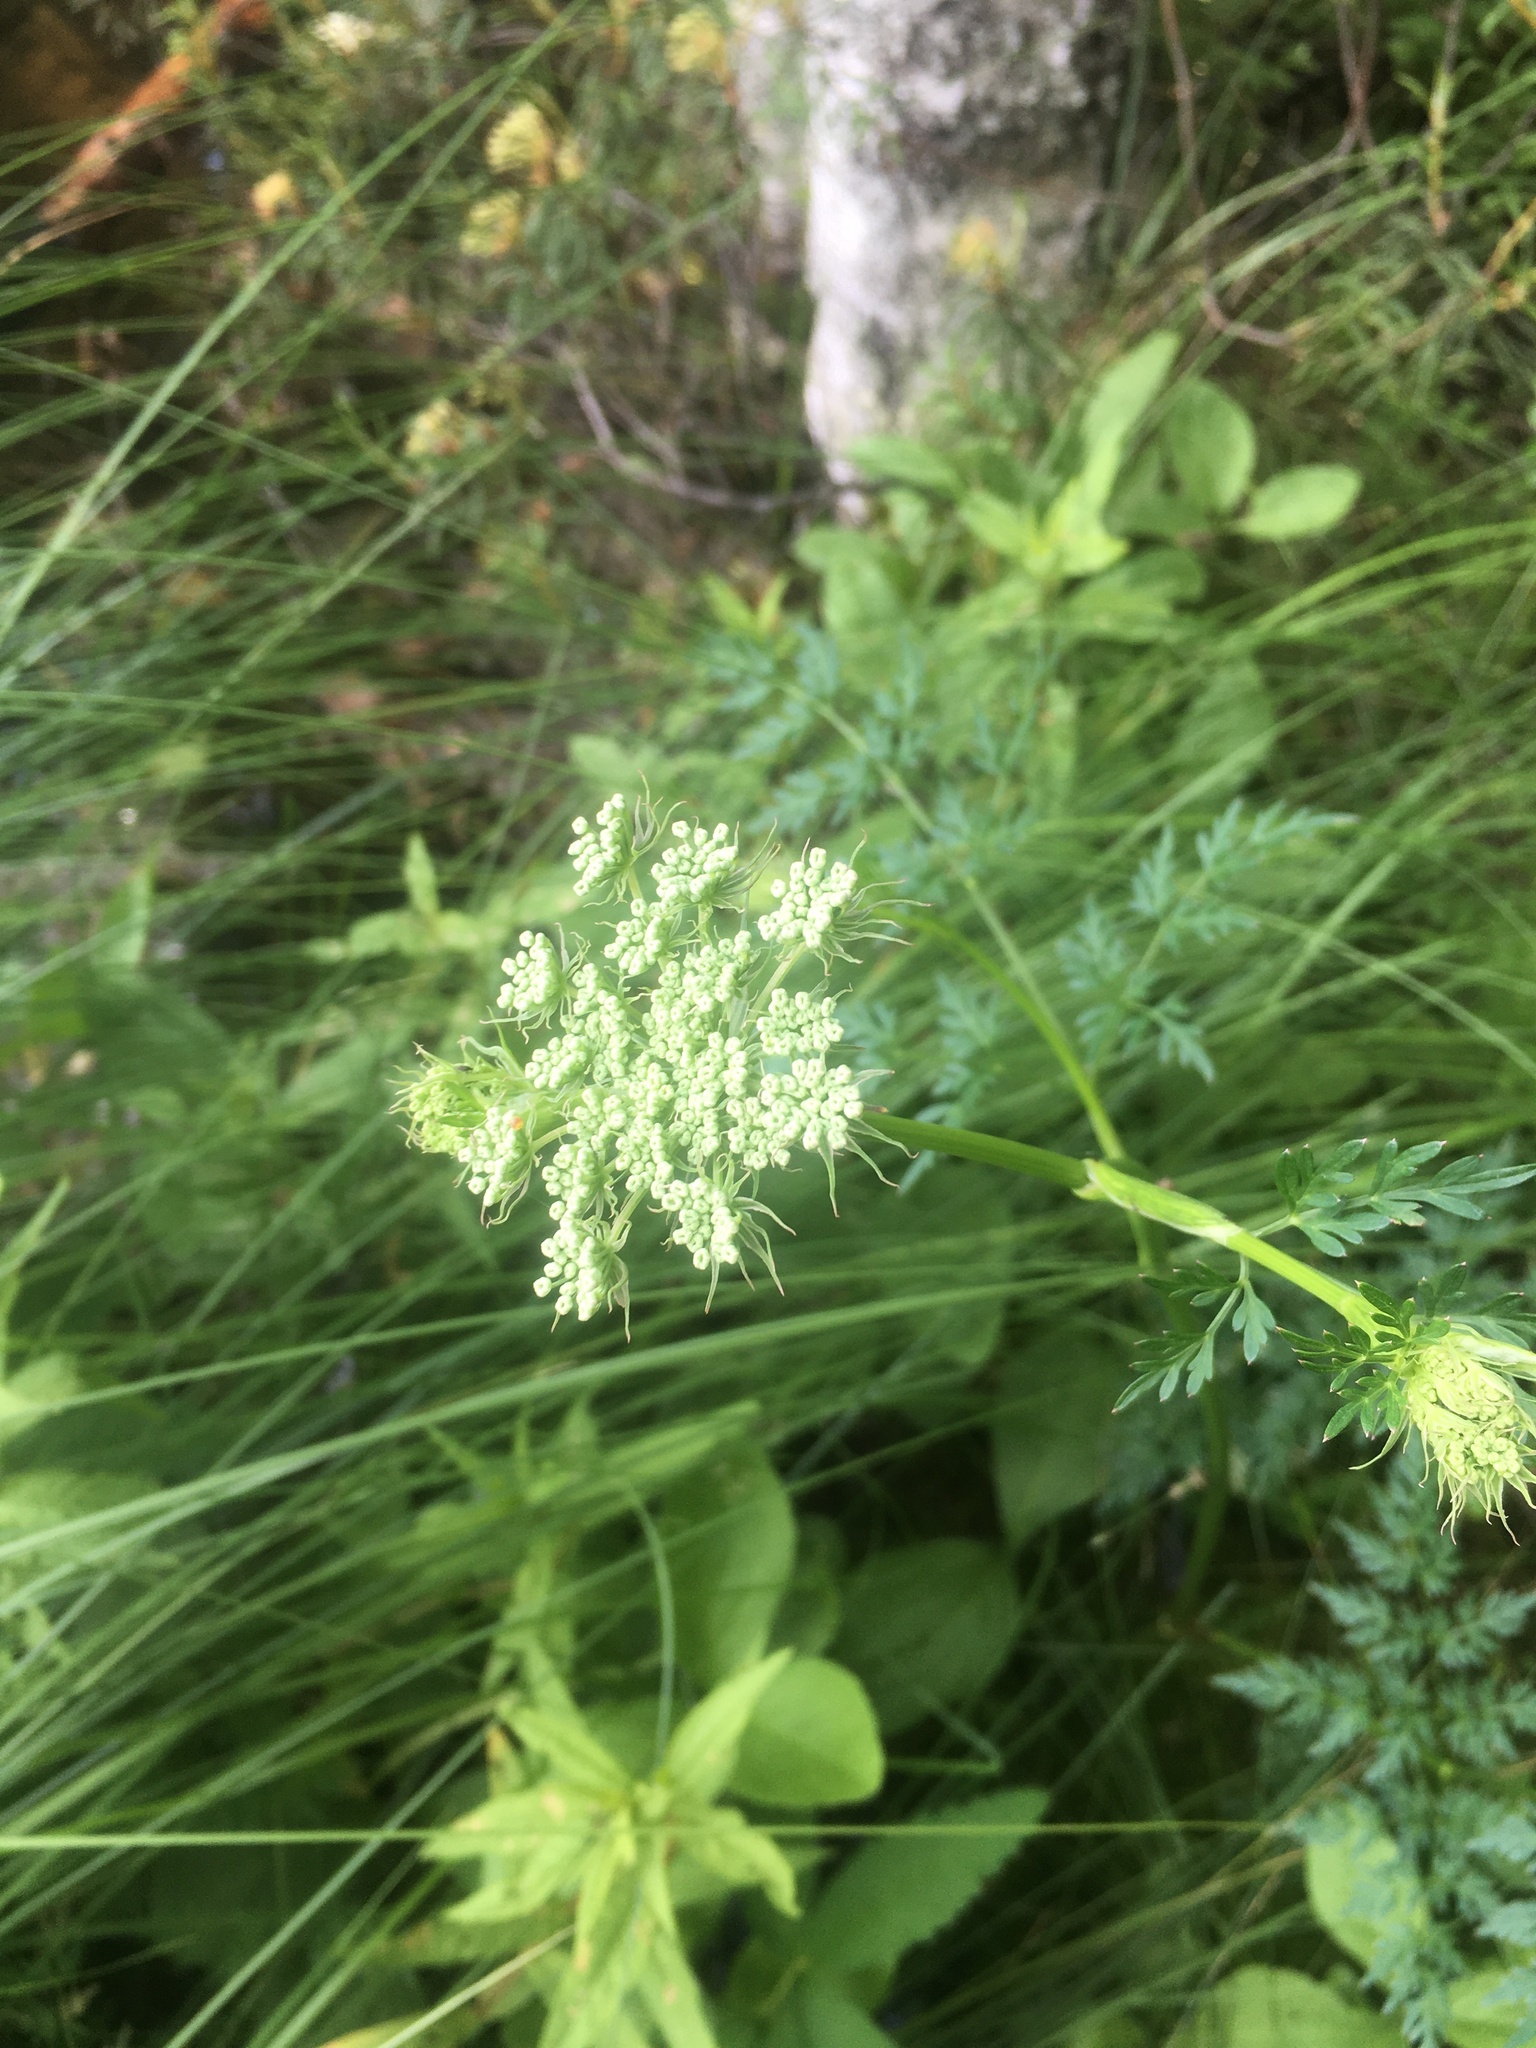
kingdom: Plantae
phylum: Tracheophyta
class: Magnoliopsida
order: Apiales
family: Apiaceae
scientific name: Apiaceae
